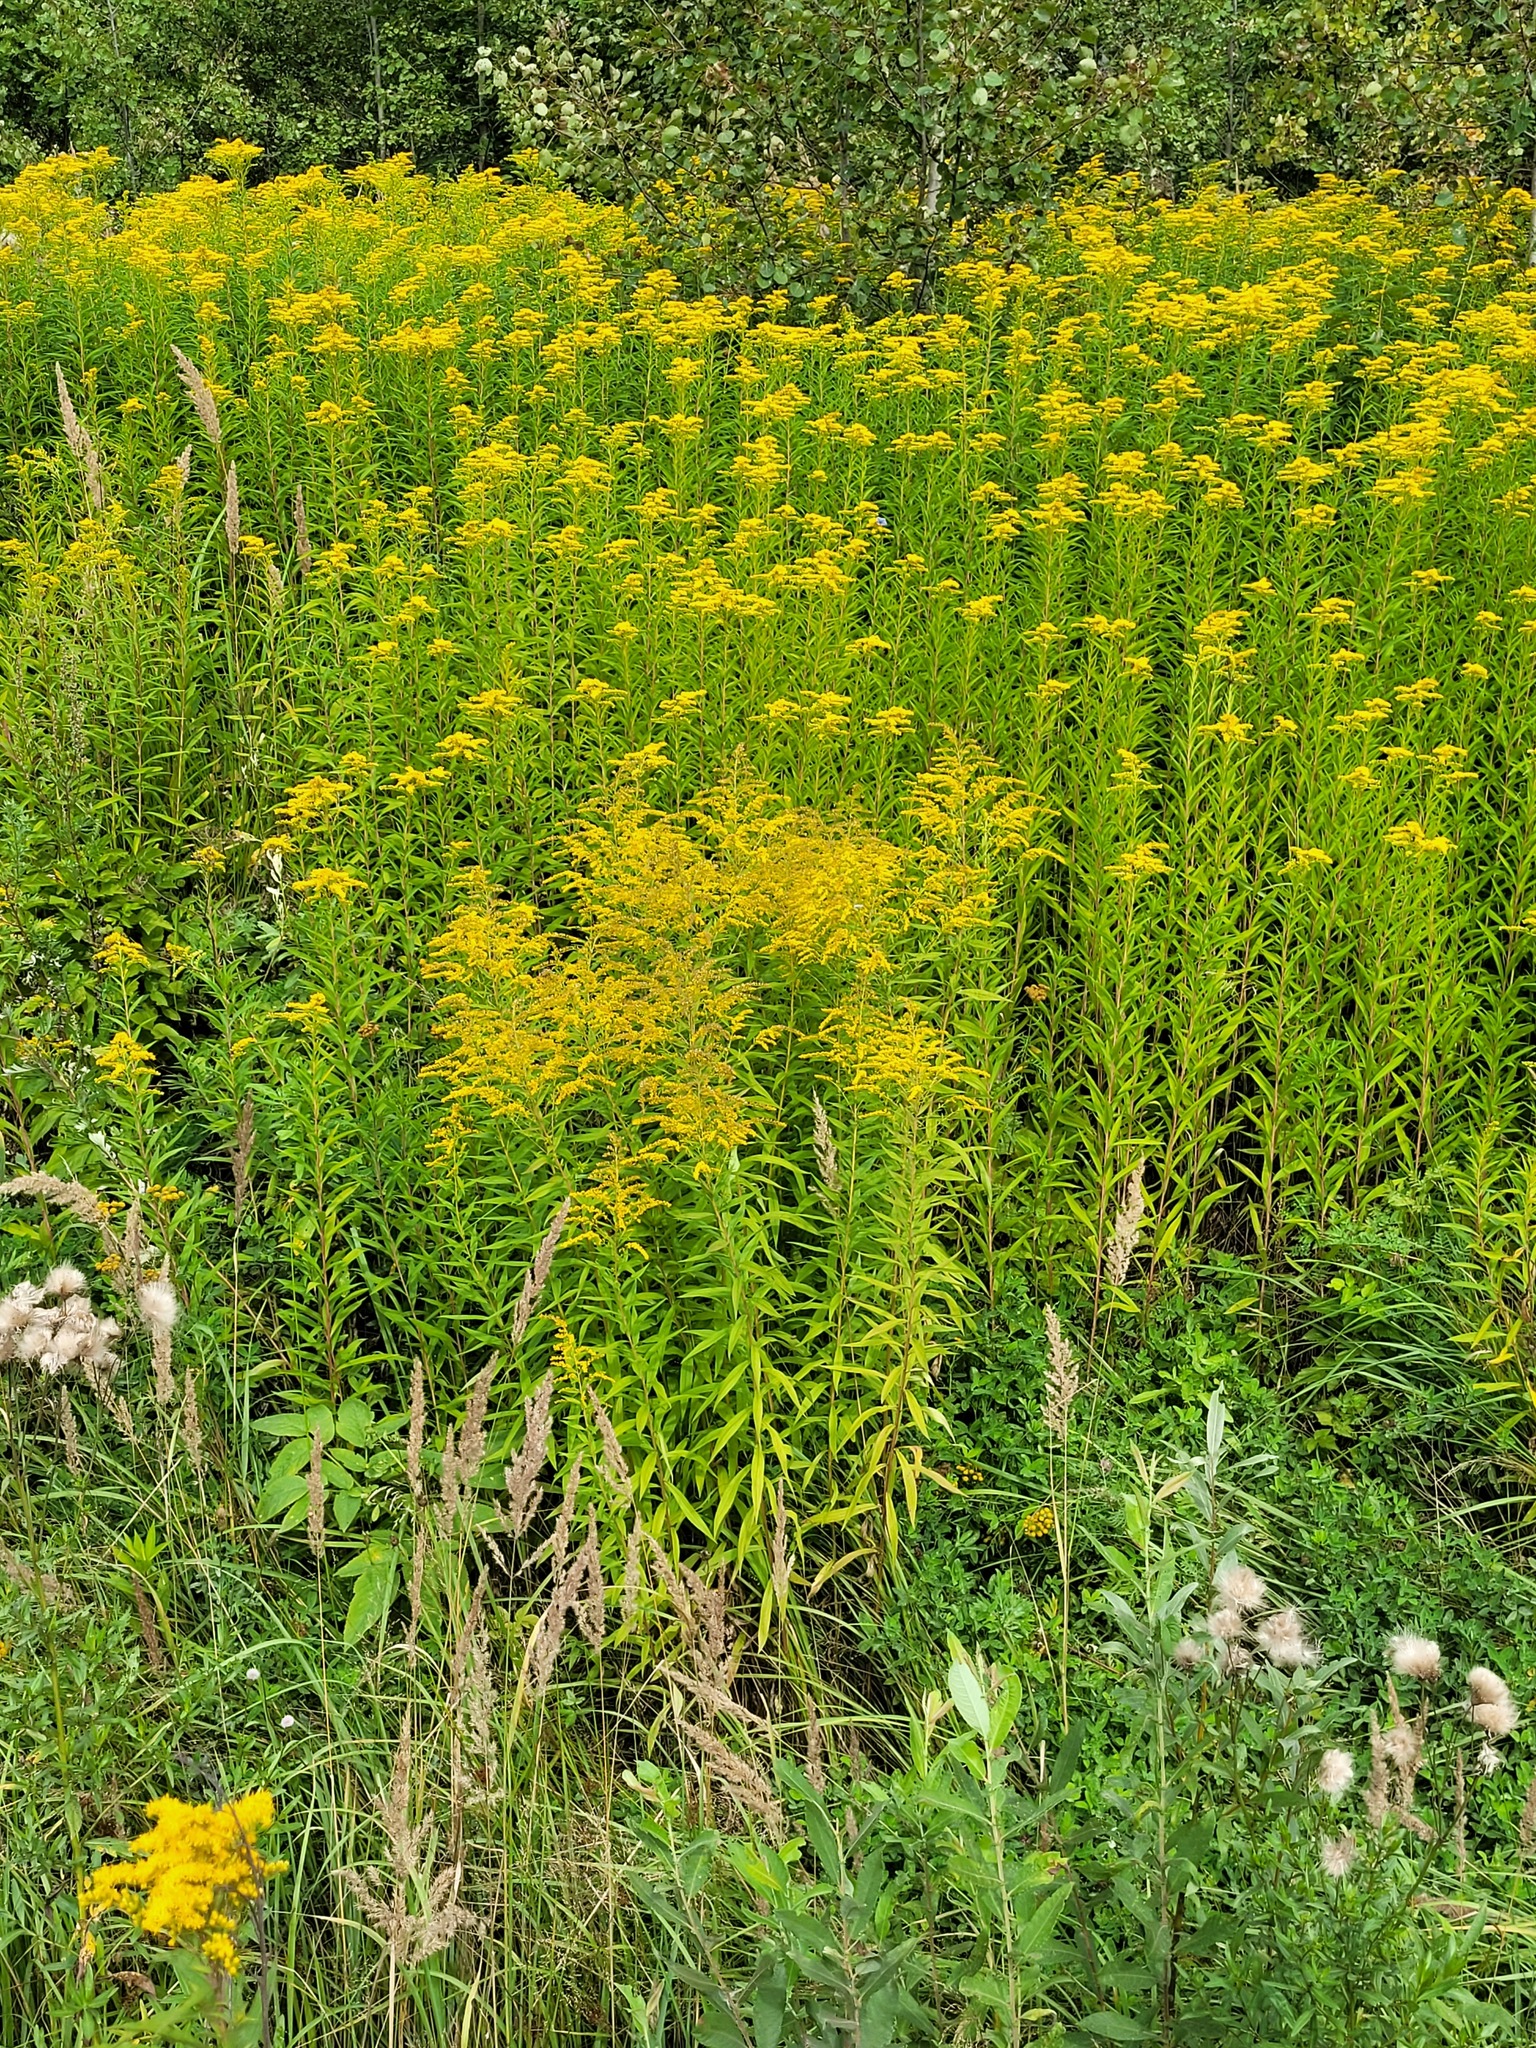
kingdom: Plantae
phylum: Tracheophyta
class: Magnoliopsida
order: Asterales
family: Asteraceae
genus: Solidago
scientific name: Solidago gigantea
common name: Giant goldenrod
